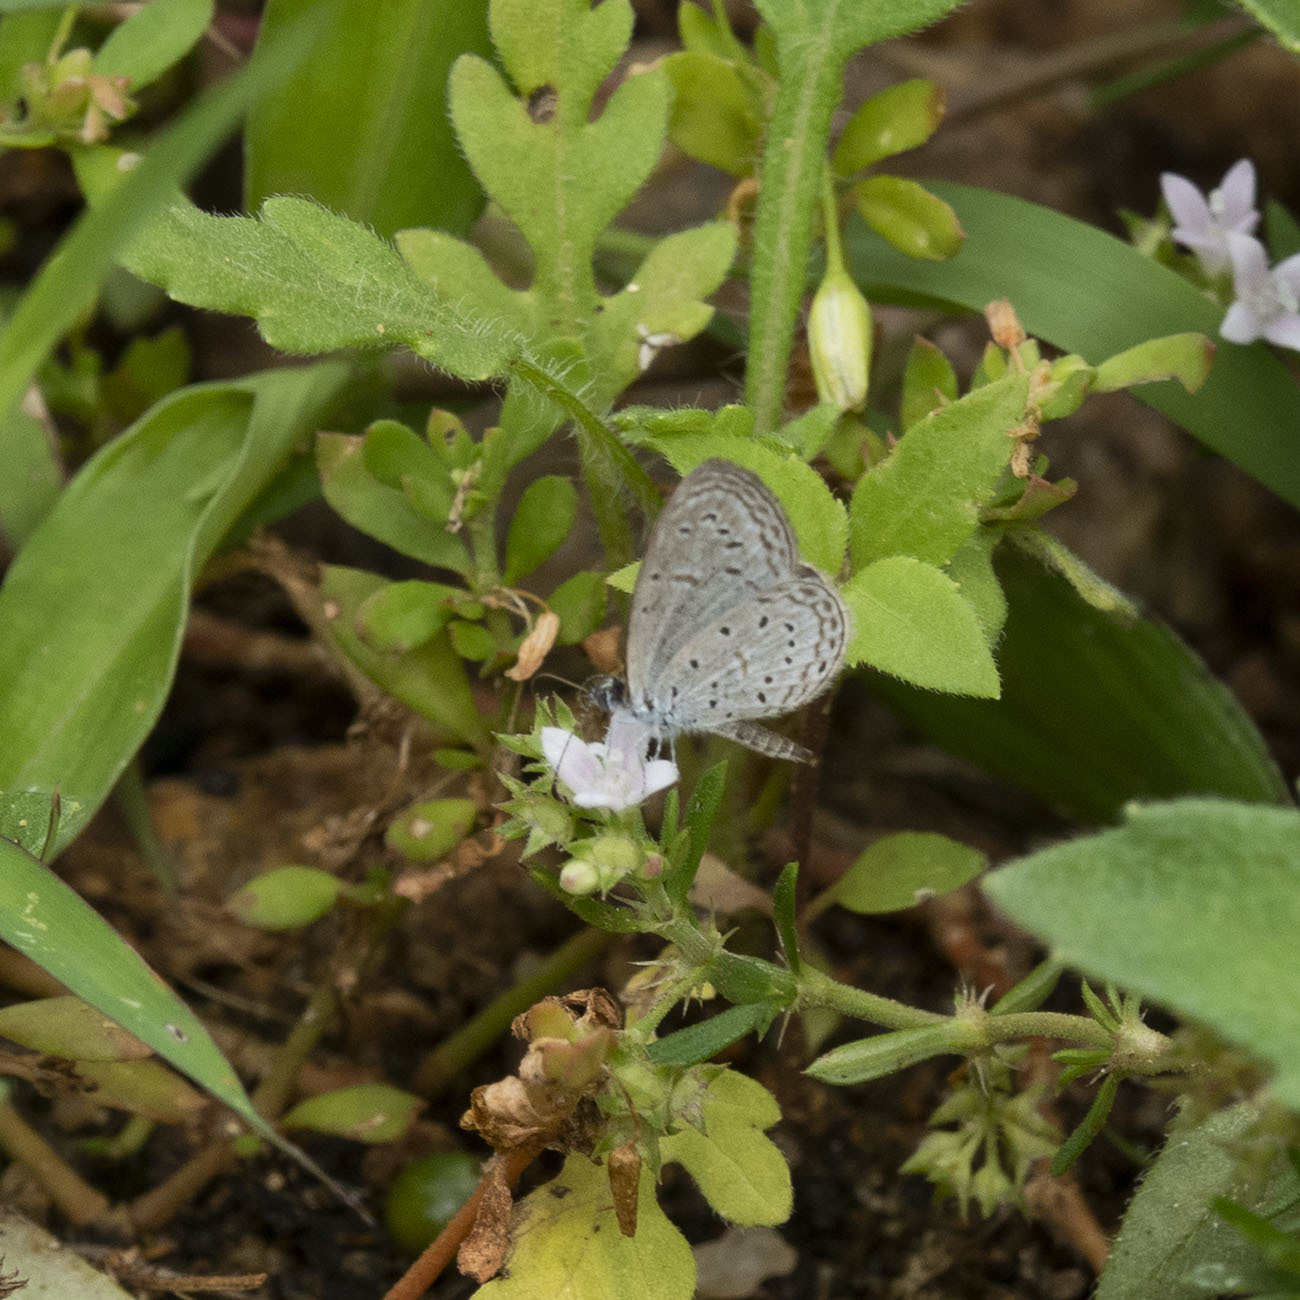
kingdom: Animalia
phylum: Arthropoda
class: Insecta
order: Lepidoptera
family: Lycaenidae
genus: Zizula
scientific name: Zizula hylax
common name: Gaika blue
